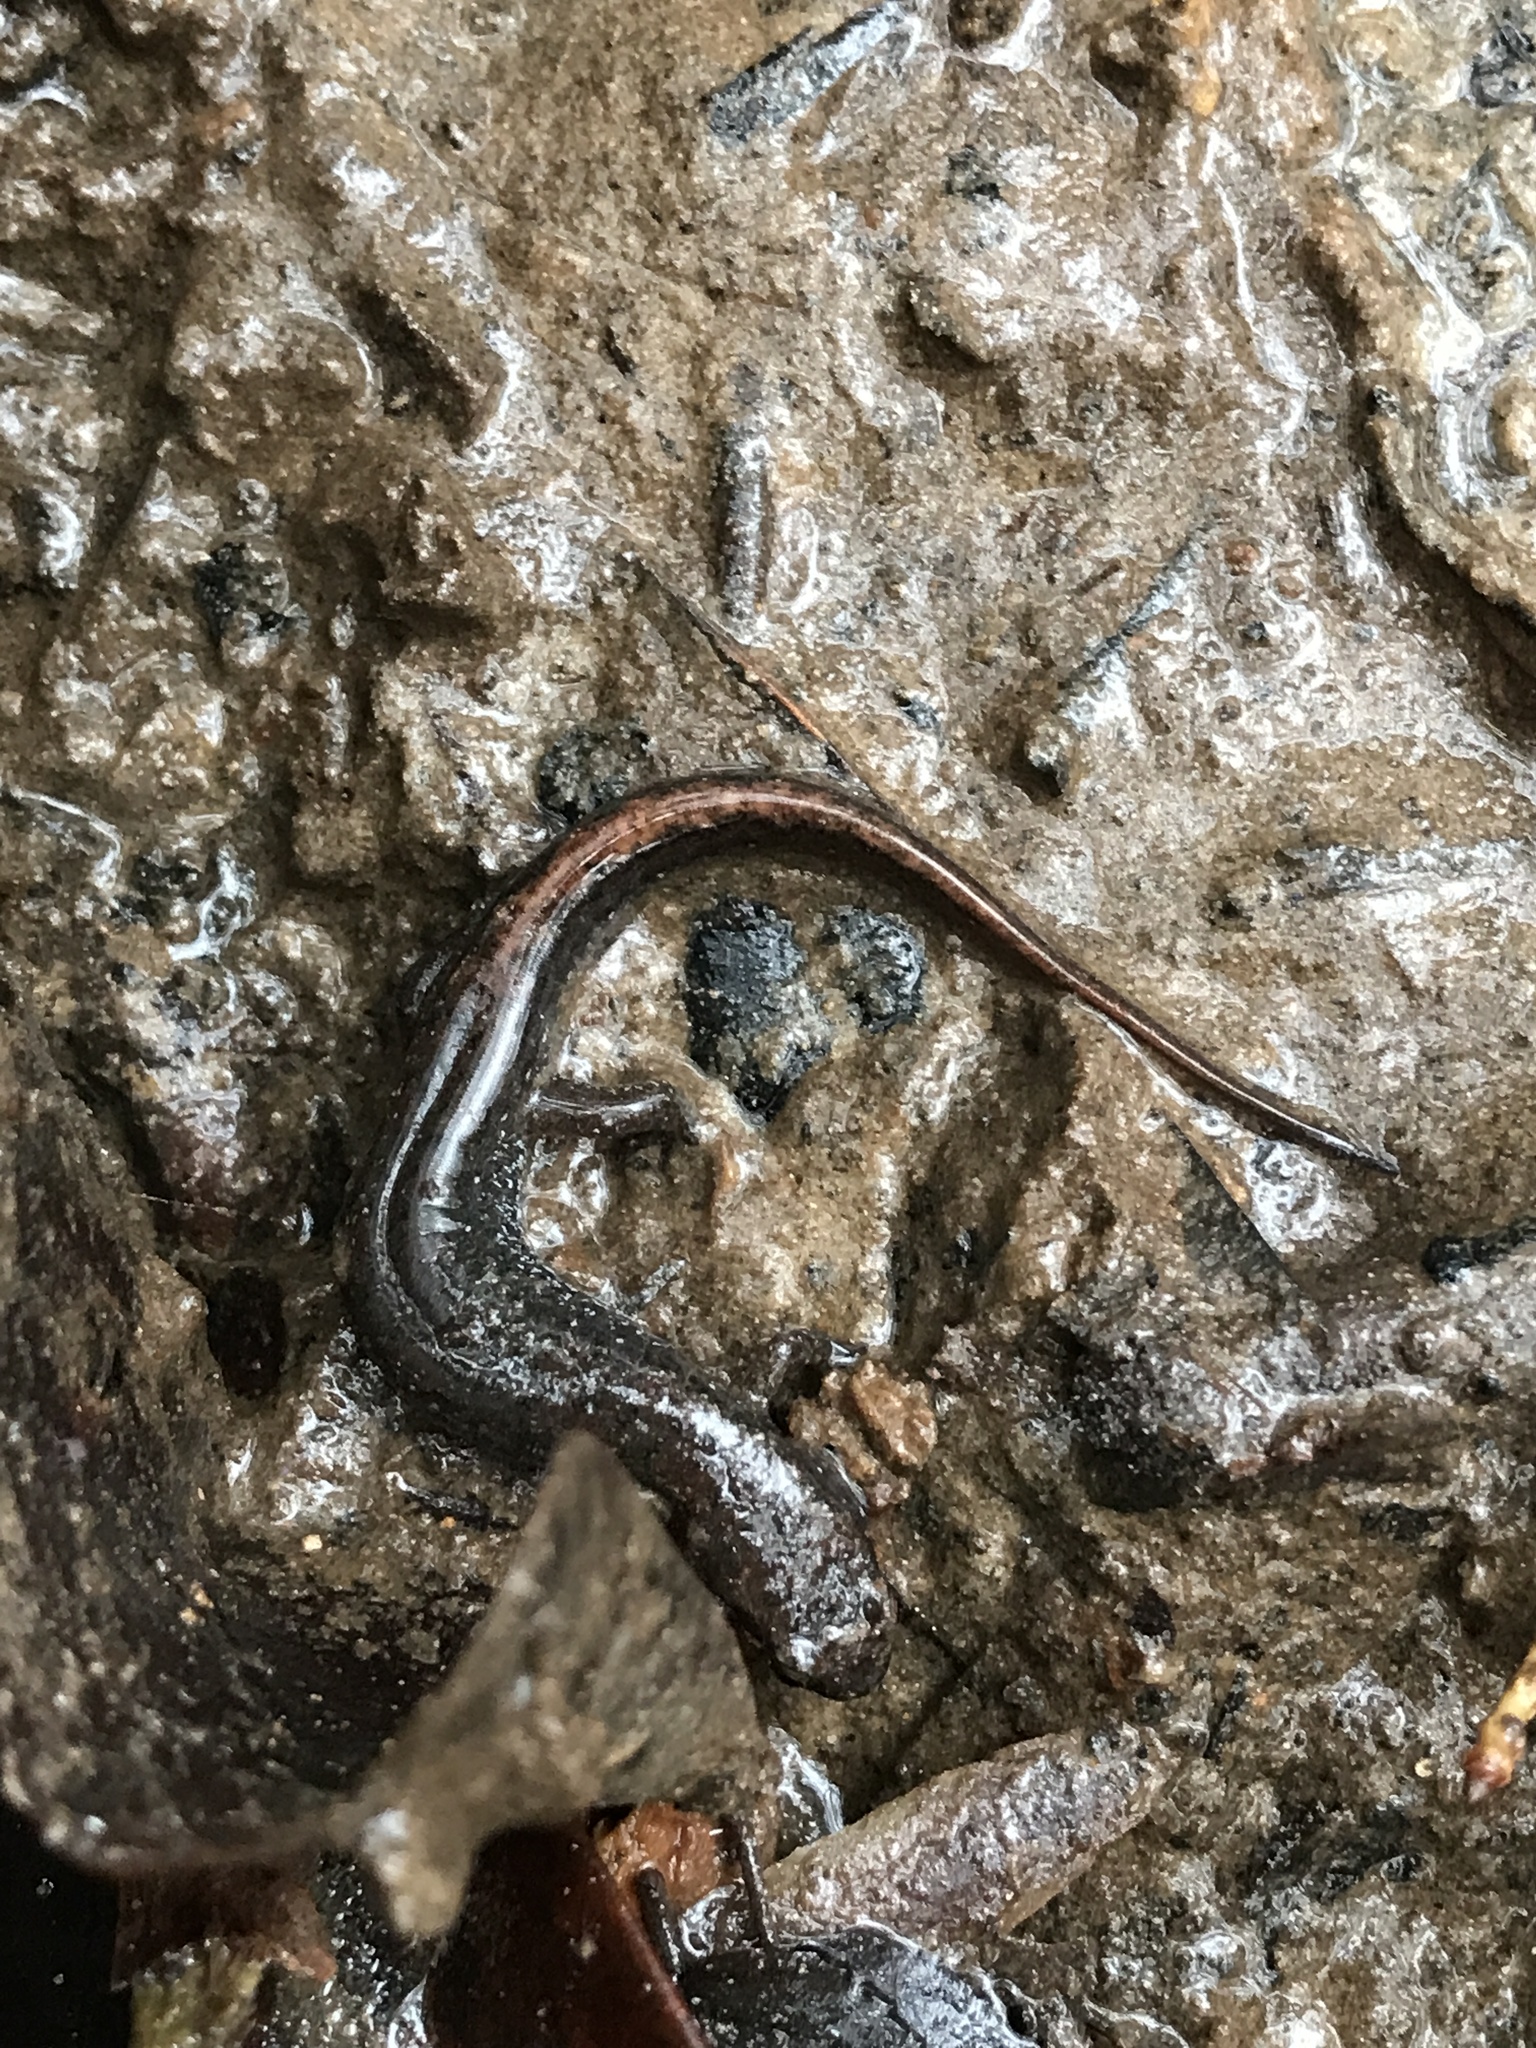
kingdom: Animalia
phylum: Chordata
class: Amphibia
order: Caudata
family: Plethodontidae
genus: Desmognathus
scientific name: Desmognathus conanti
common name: Spotted dusky salamander
